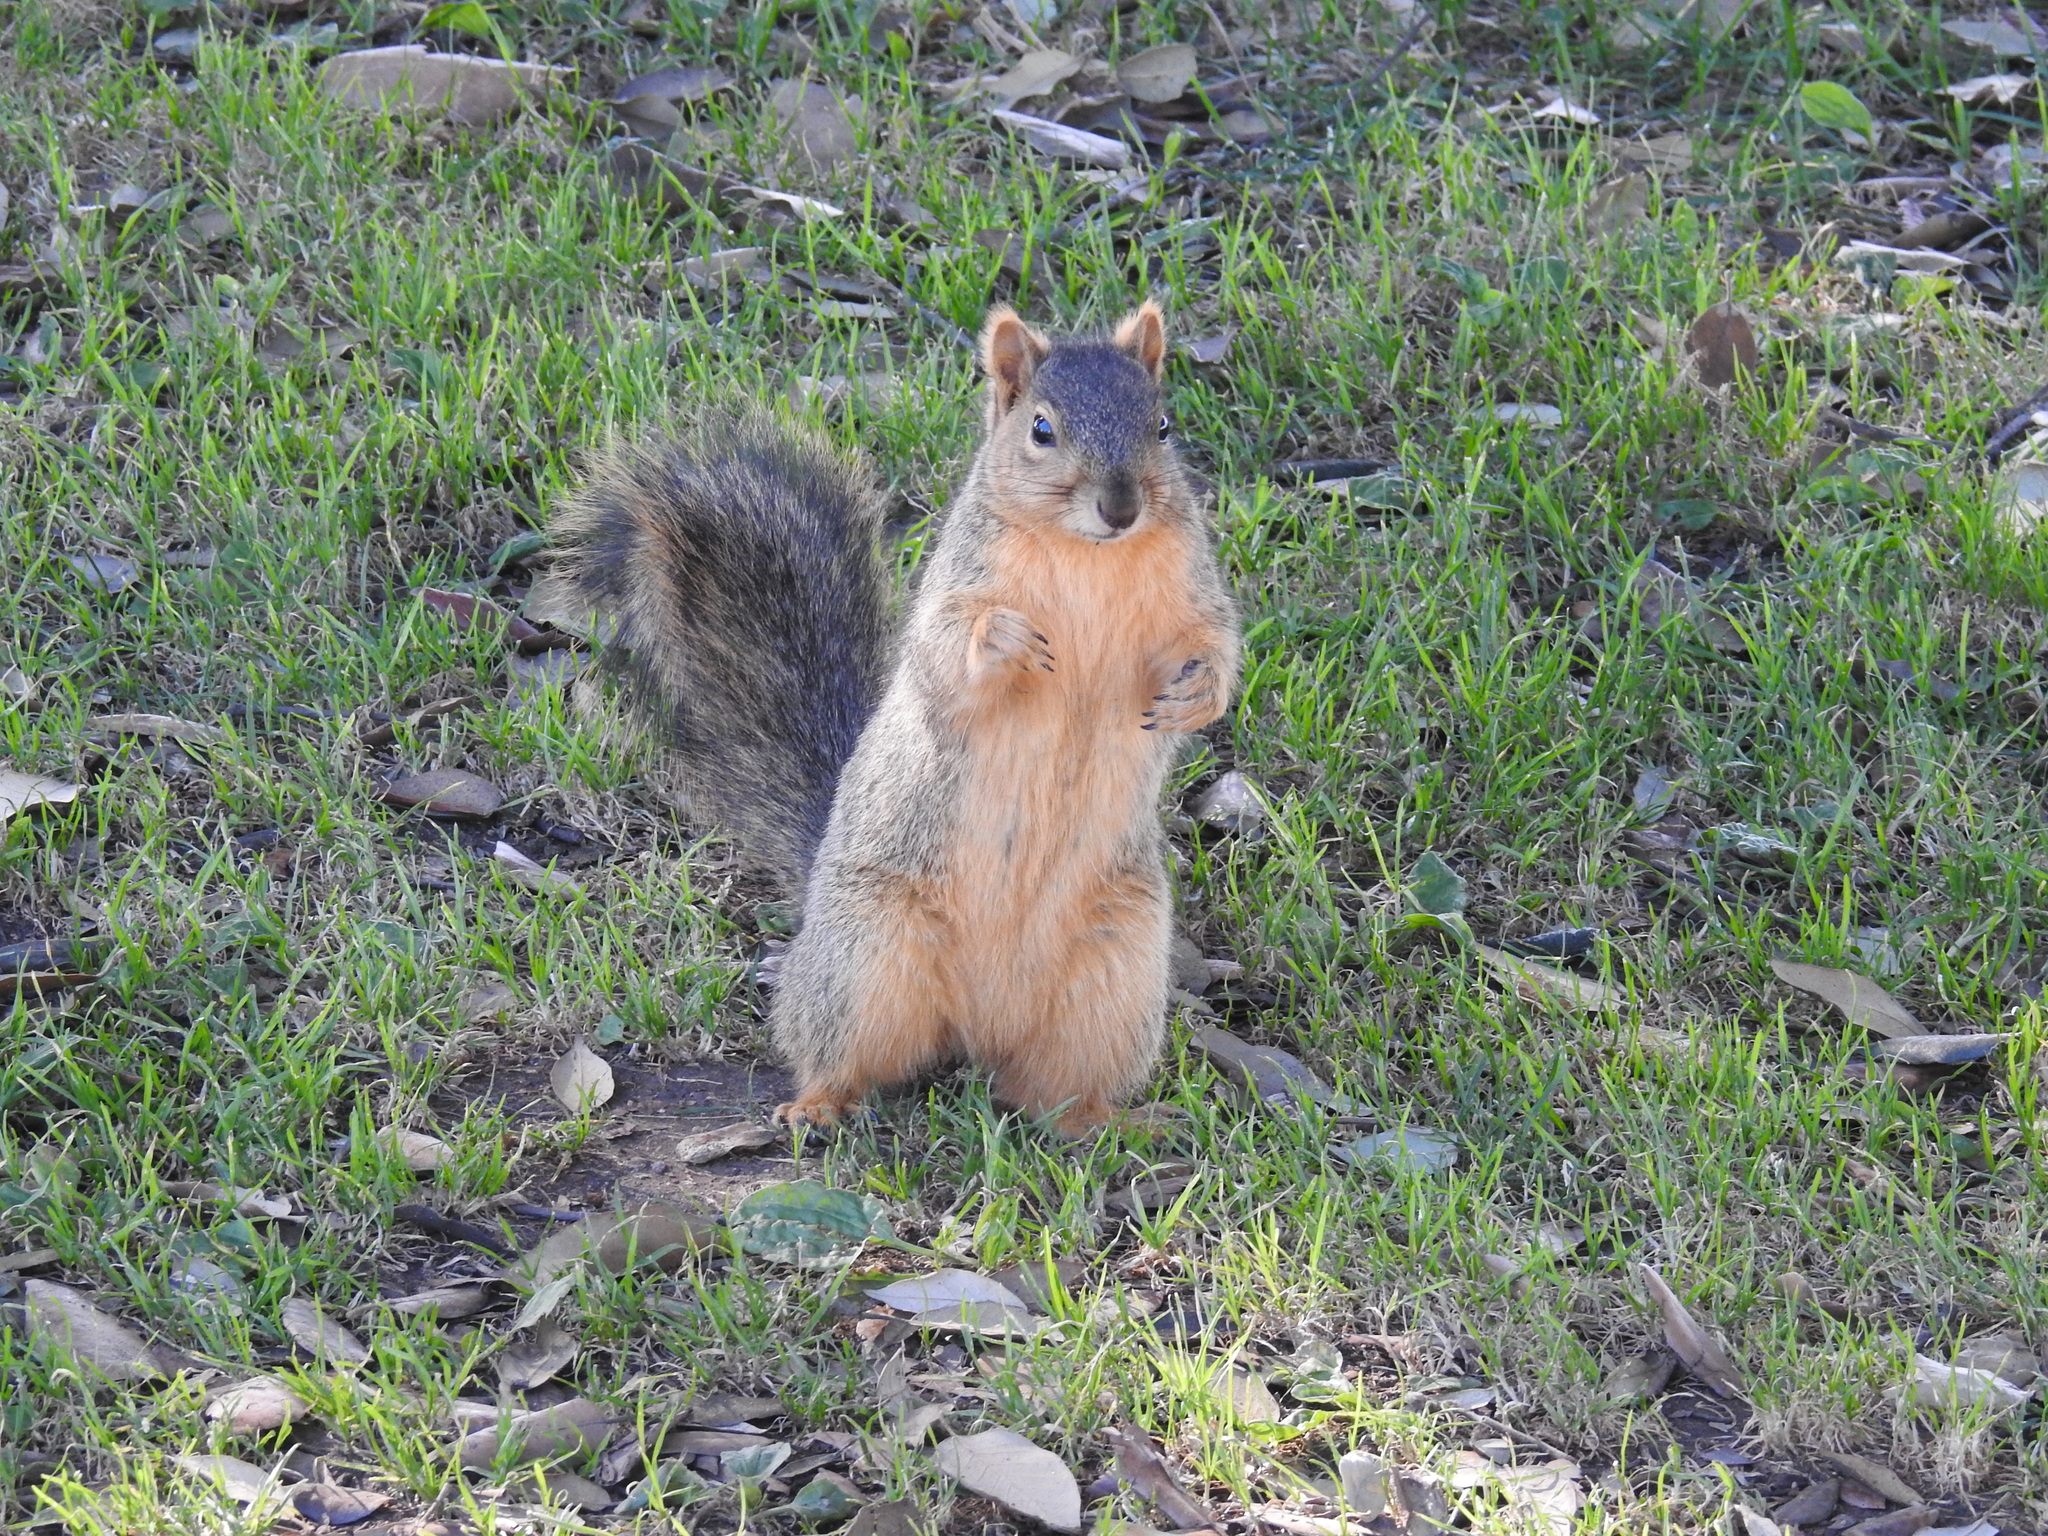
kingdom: Animalia
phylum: Chordata
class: Mammalia
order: Rodentia
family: Sciuridae
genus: Sciurus
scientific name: Sciurus niger
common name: Fox squirrel
